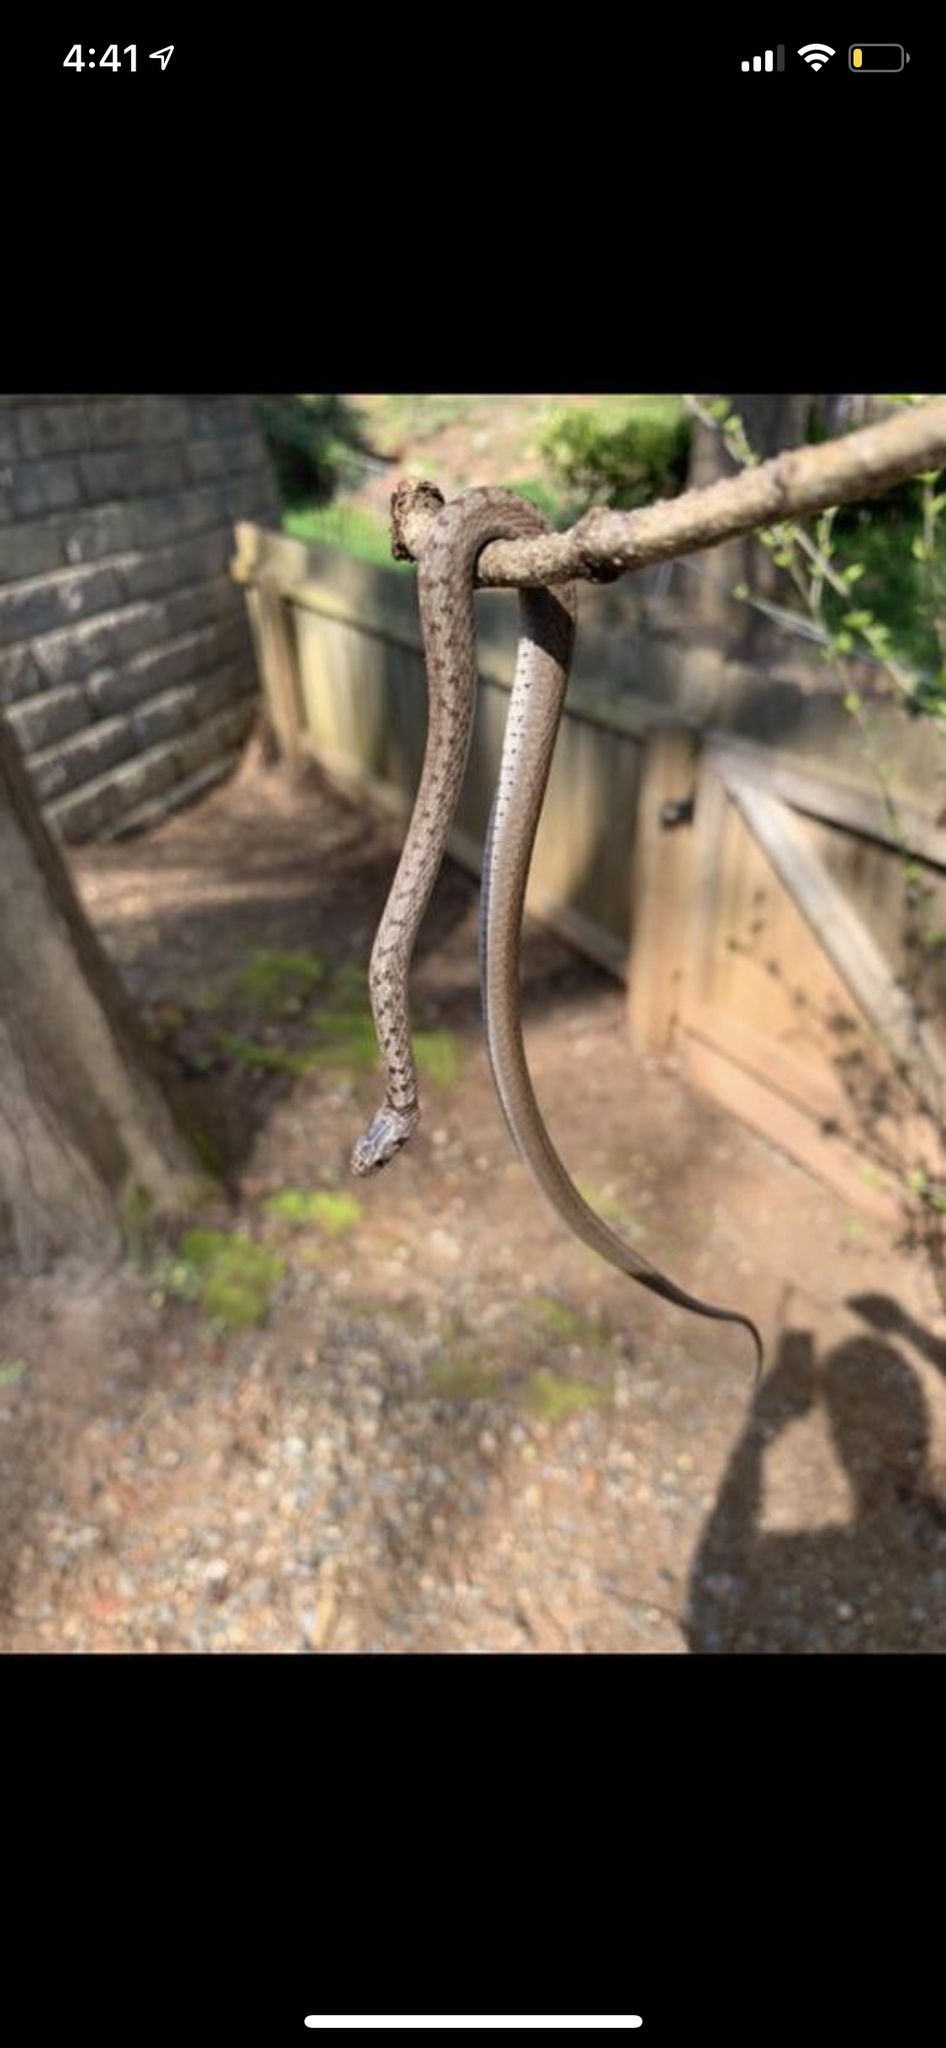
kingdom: Animalia
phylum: Chordata
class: Squamata
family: Colubridae
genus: Storeria
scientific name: Storeria dekayi
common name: (dekay’s) brown snake
